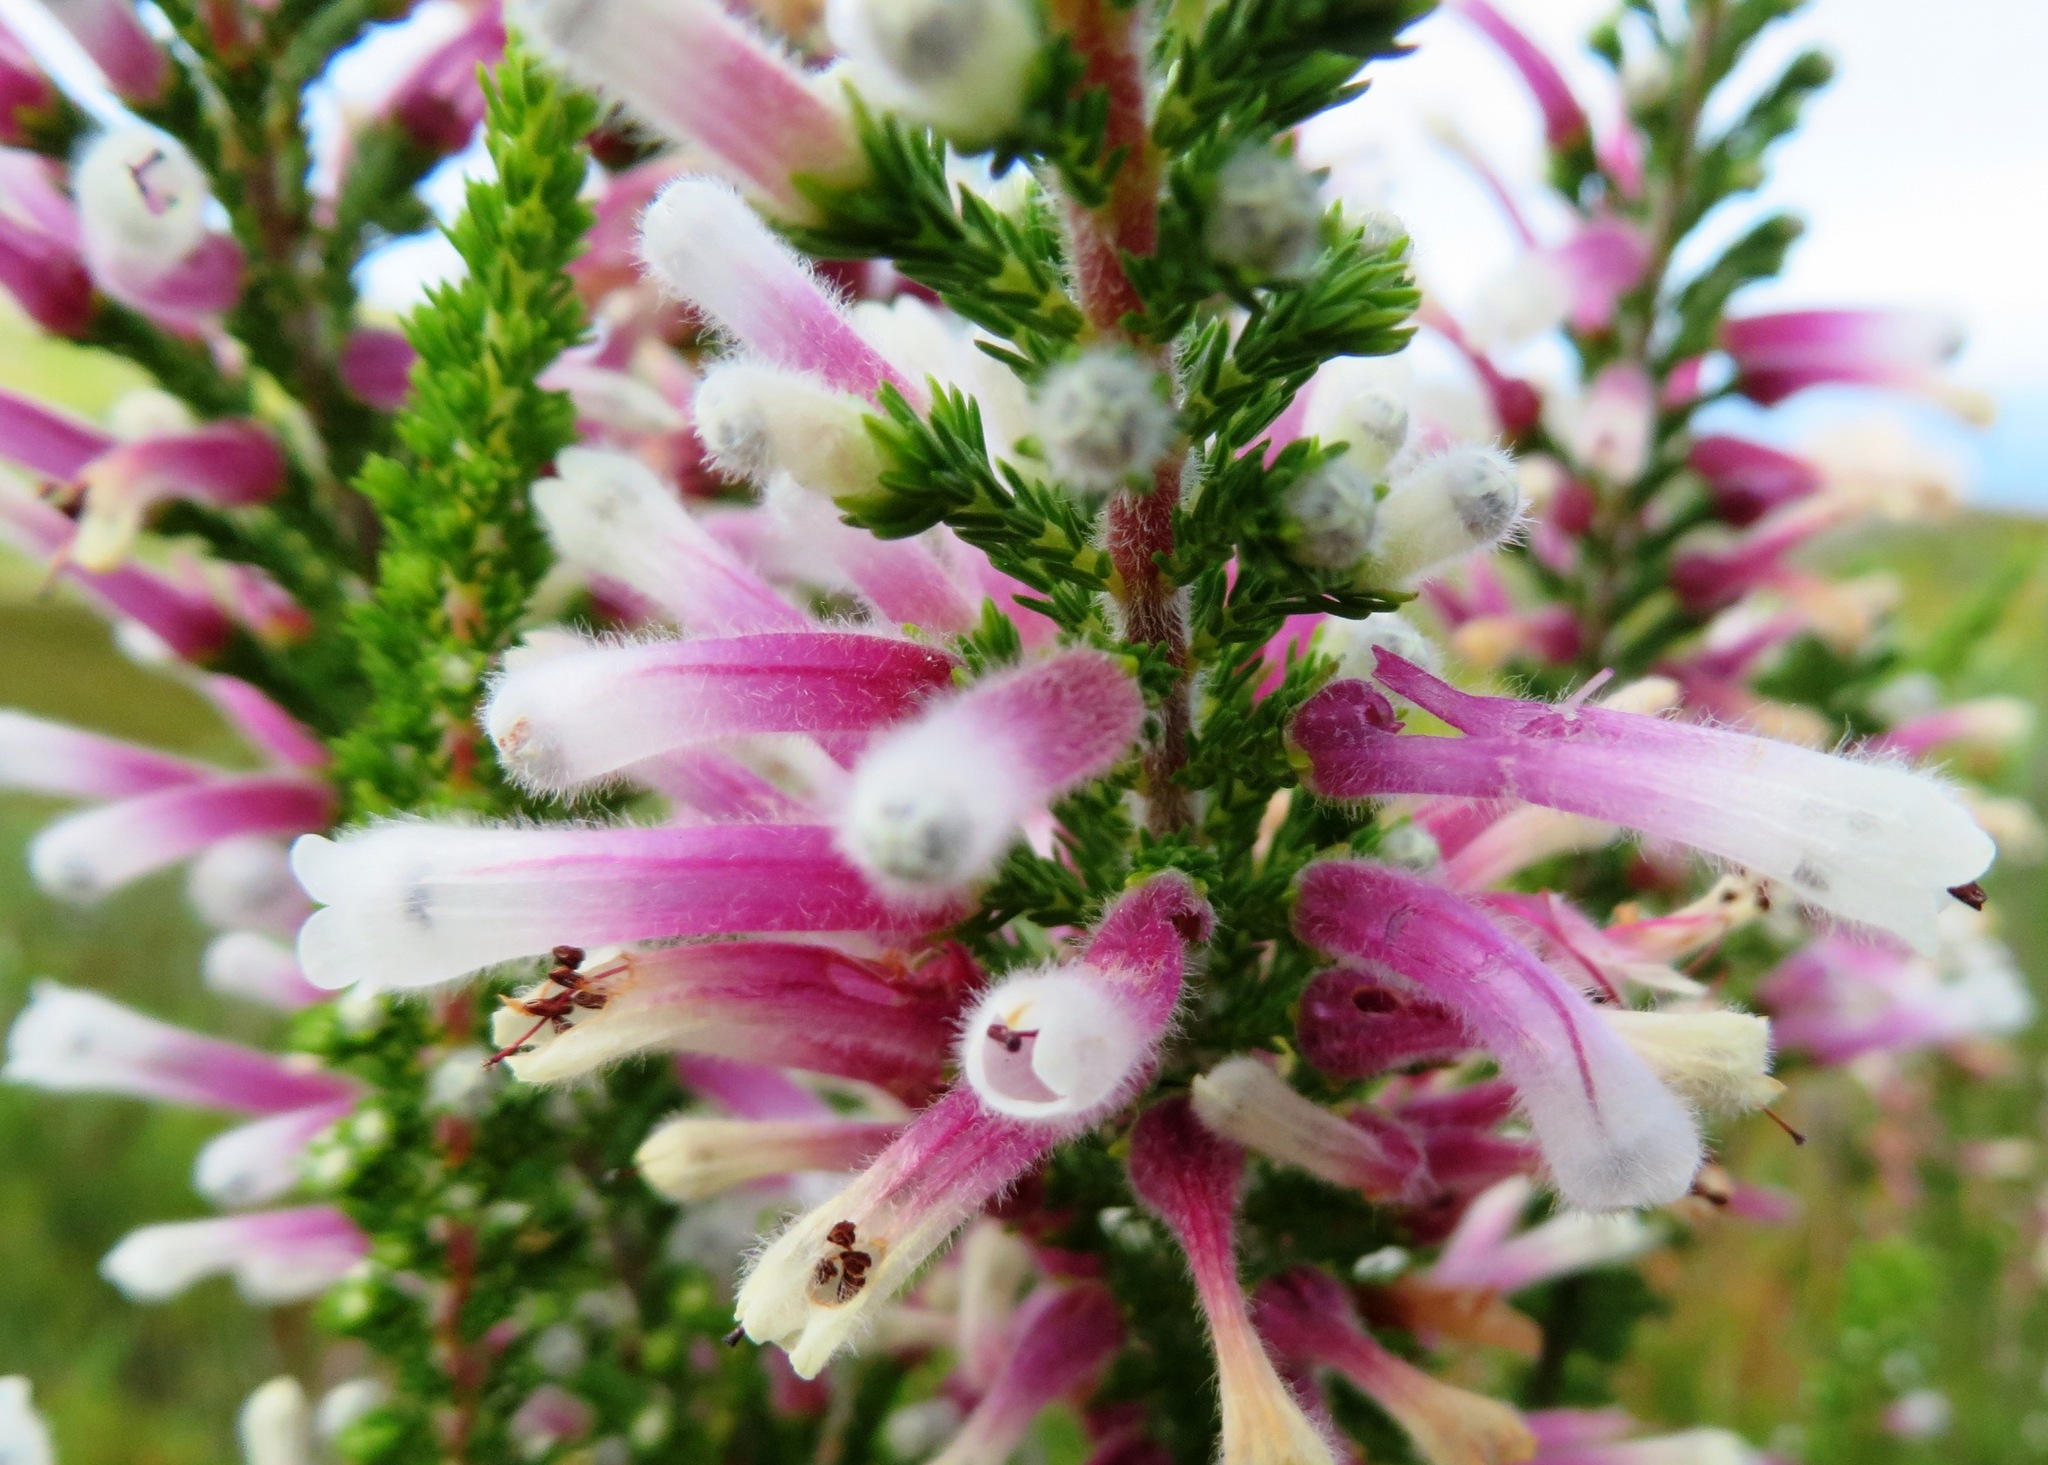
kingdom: Plantae
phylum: Tracheophyta
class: Magnoliopsida
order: Ericales
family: Ericaceae
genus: Erica
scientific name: Erica perspicua
